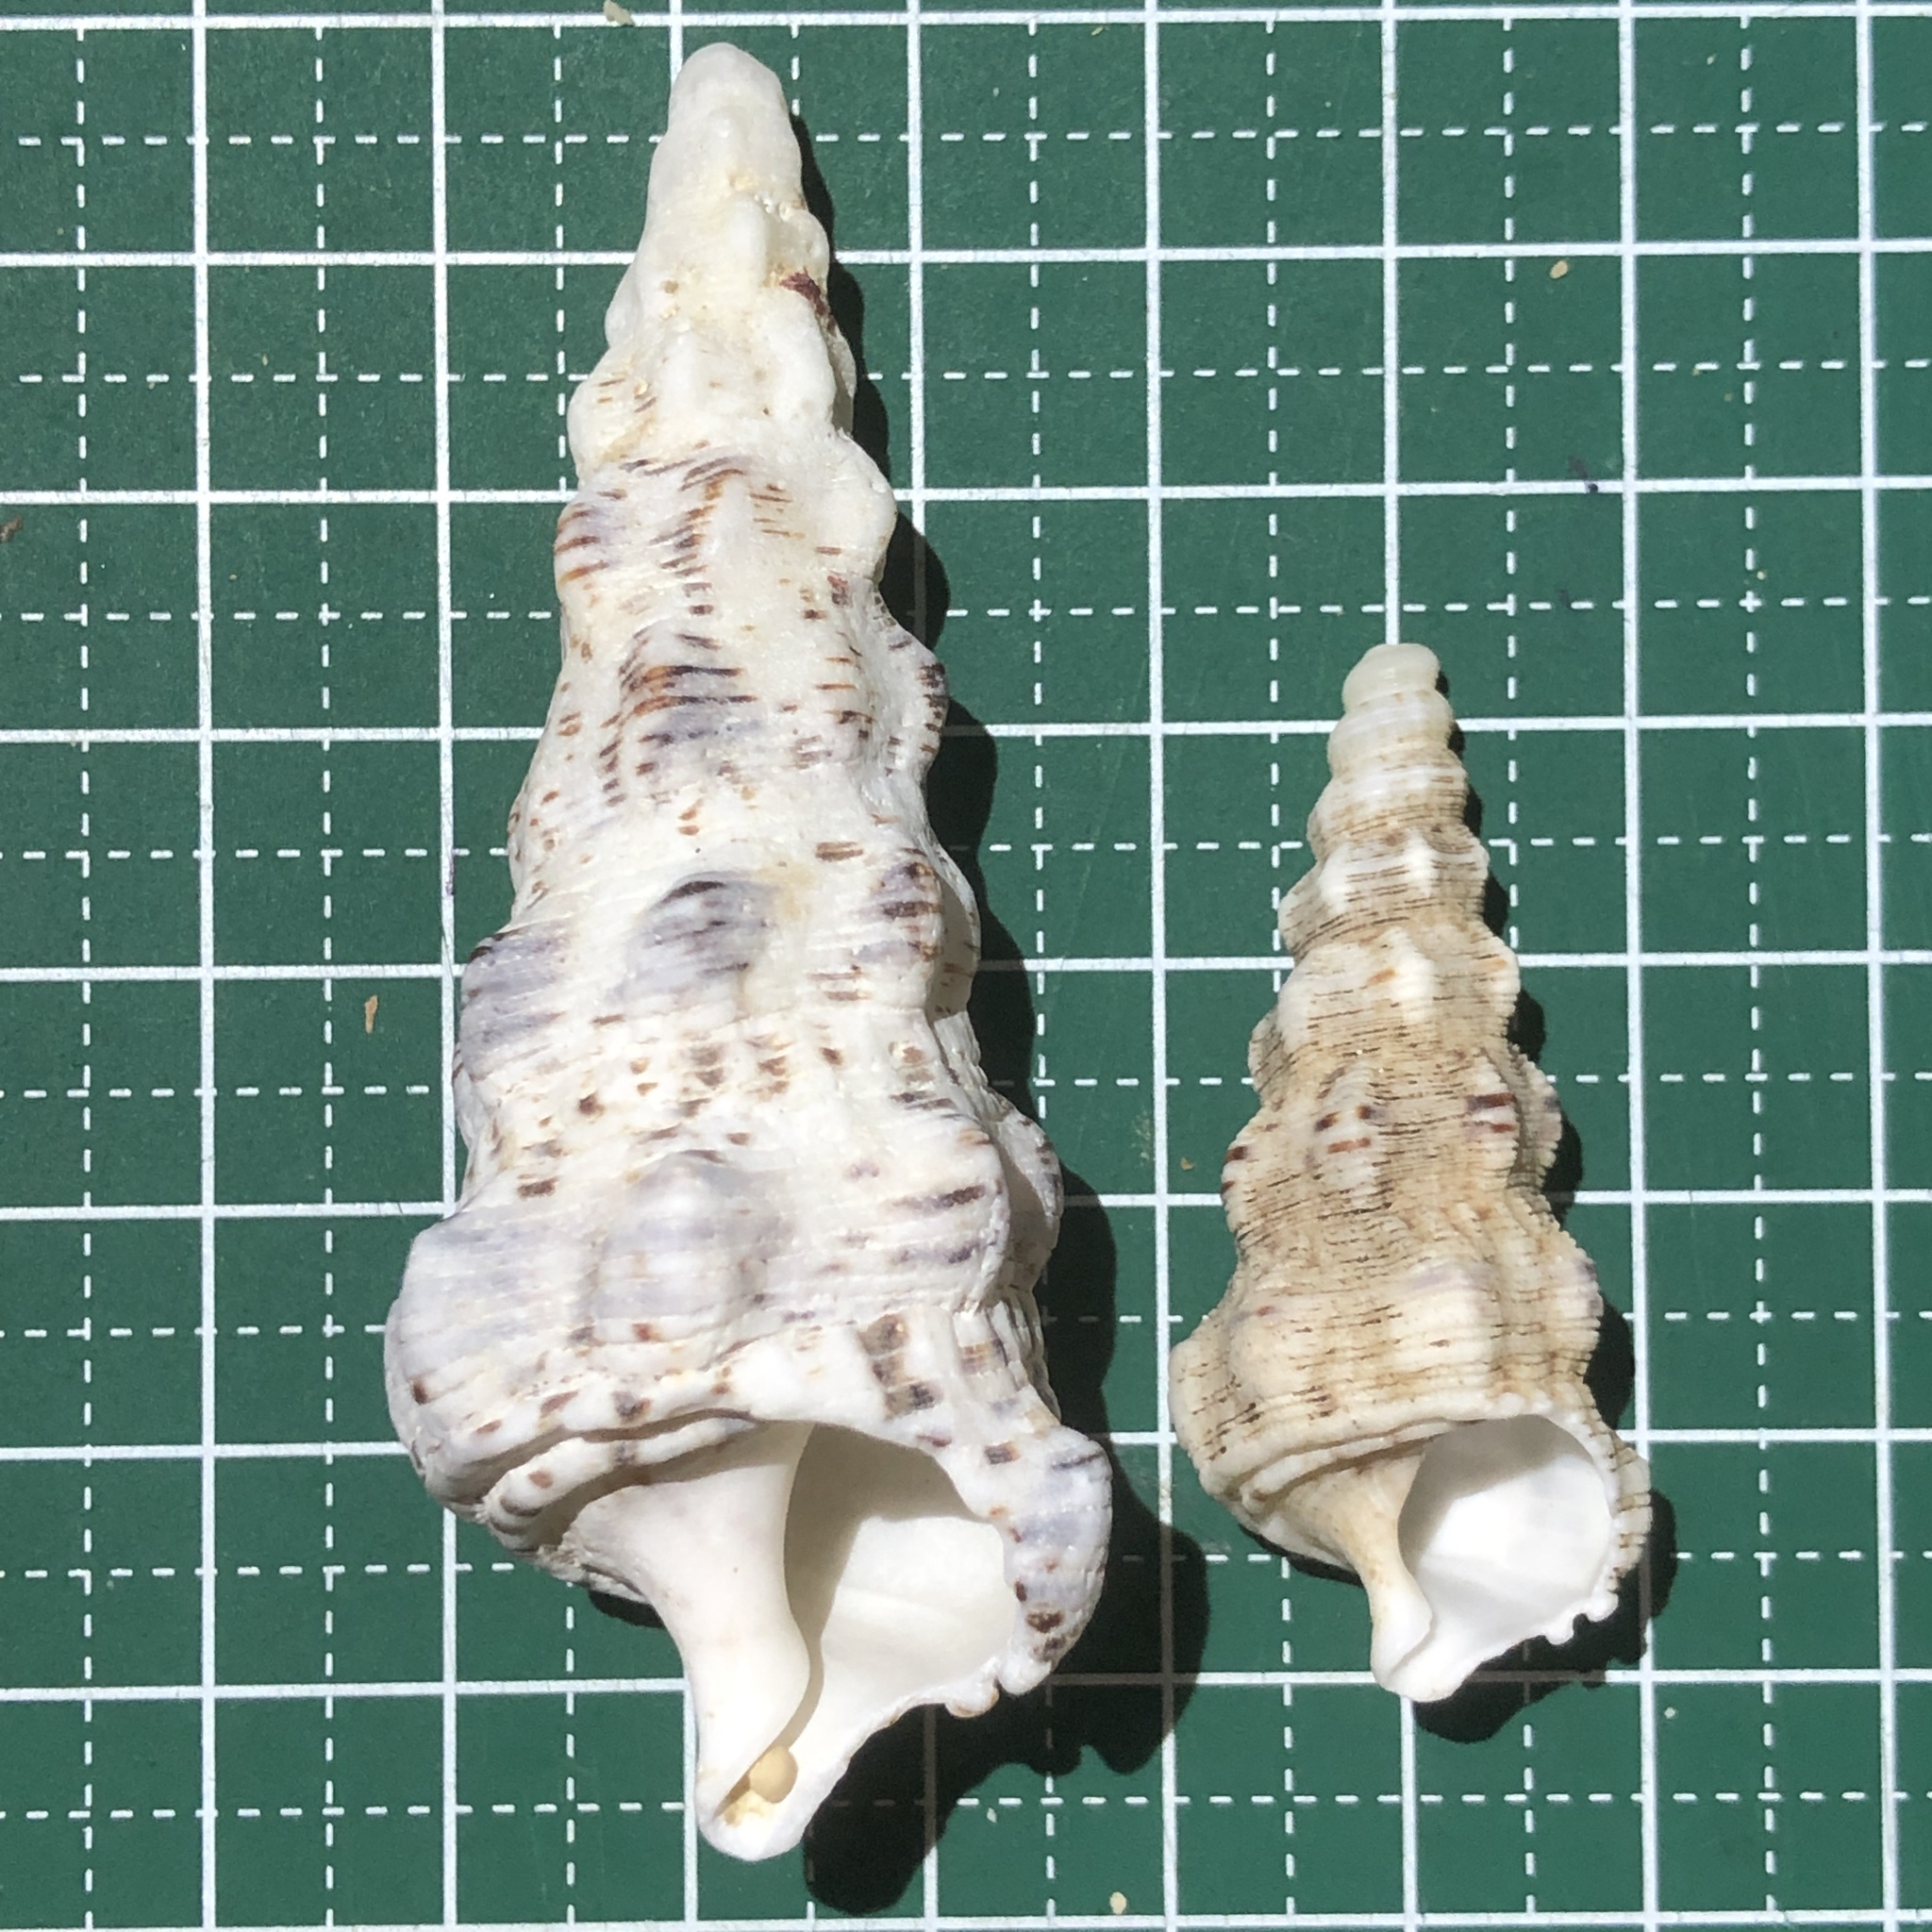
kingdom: Animalia
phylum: Mollusca
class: Gastropoda
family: Cerithiidae
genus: Cerithium
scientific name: Cerithium nodulosum
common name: Nadelschnecke giant knobbed cerith
